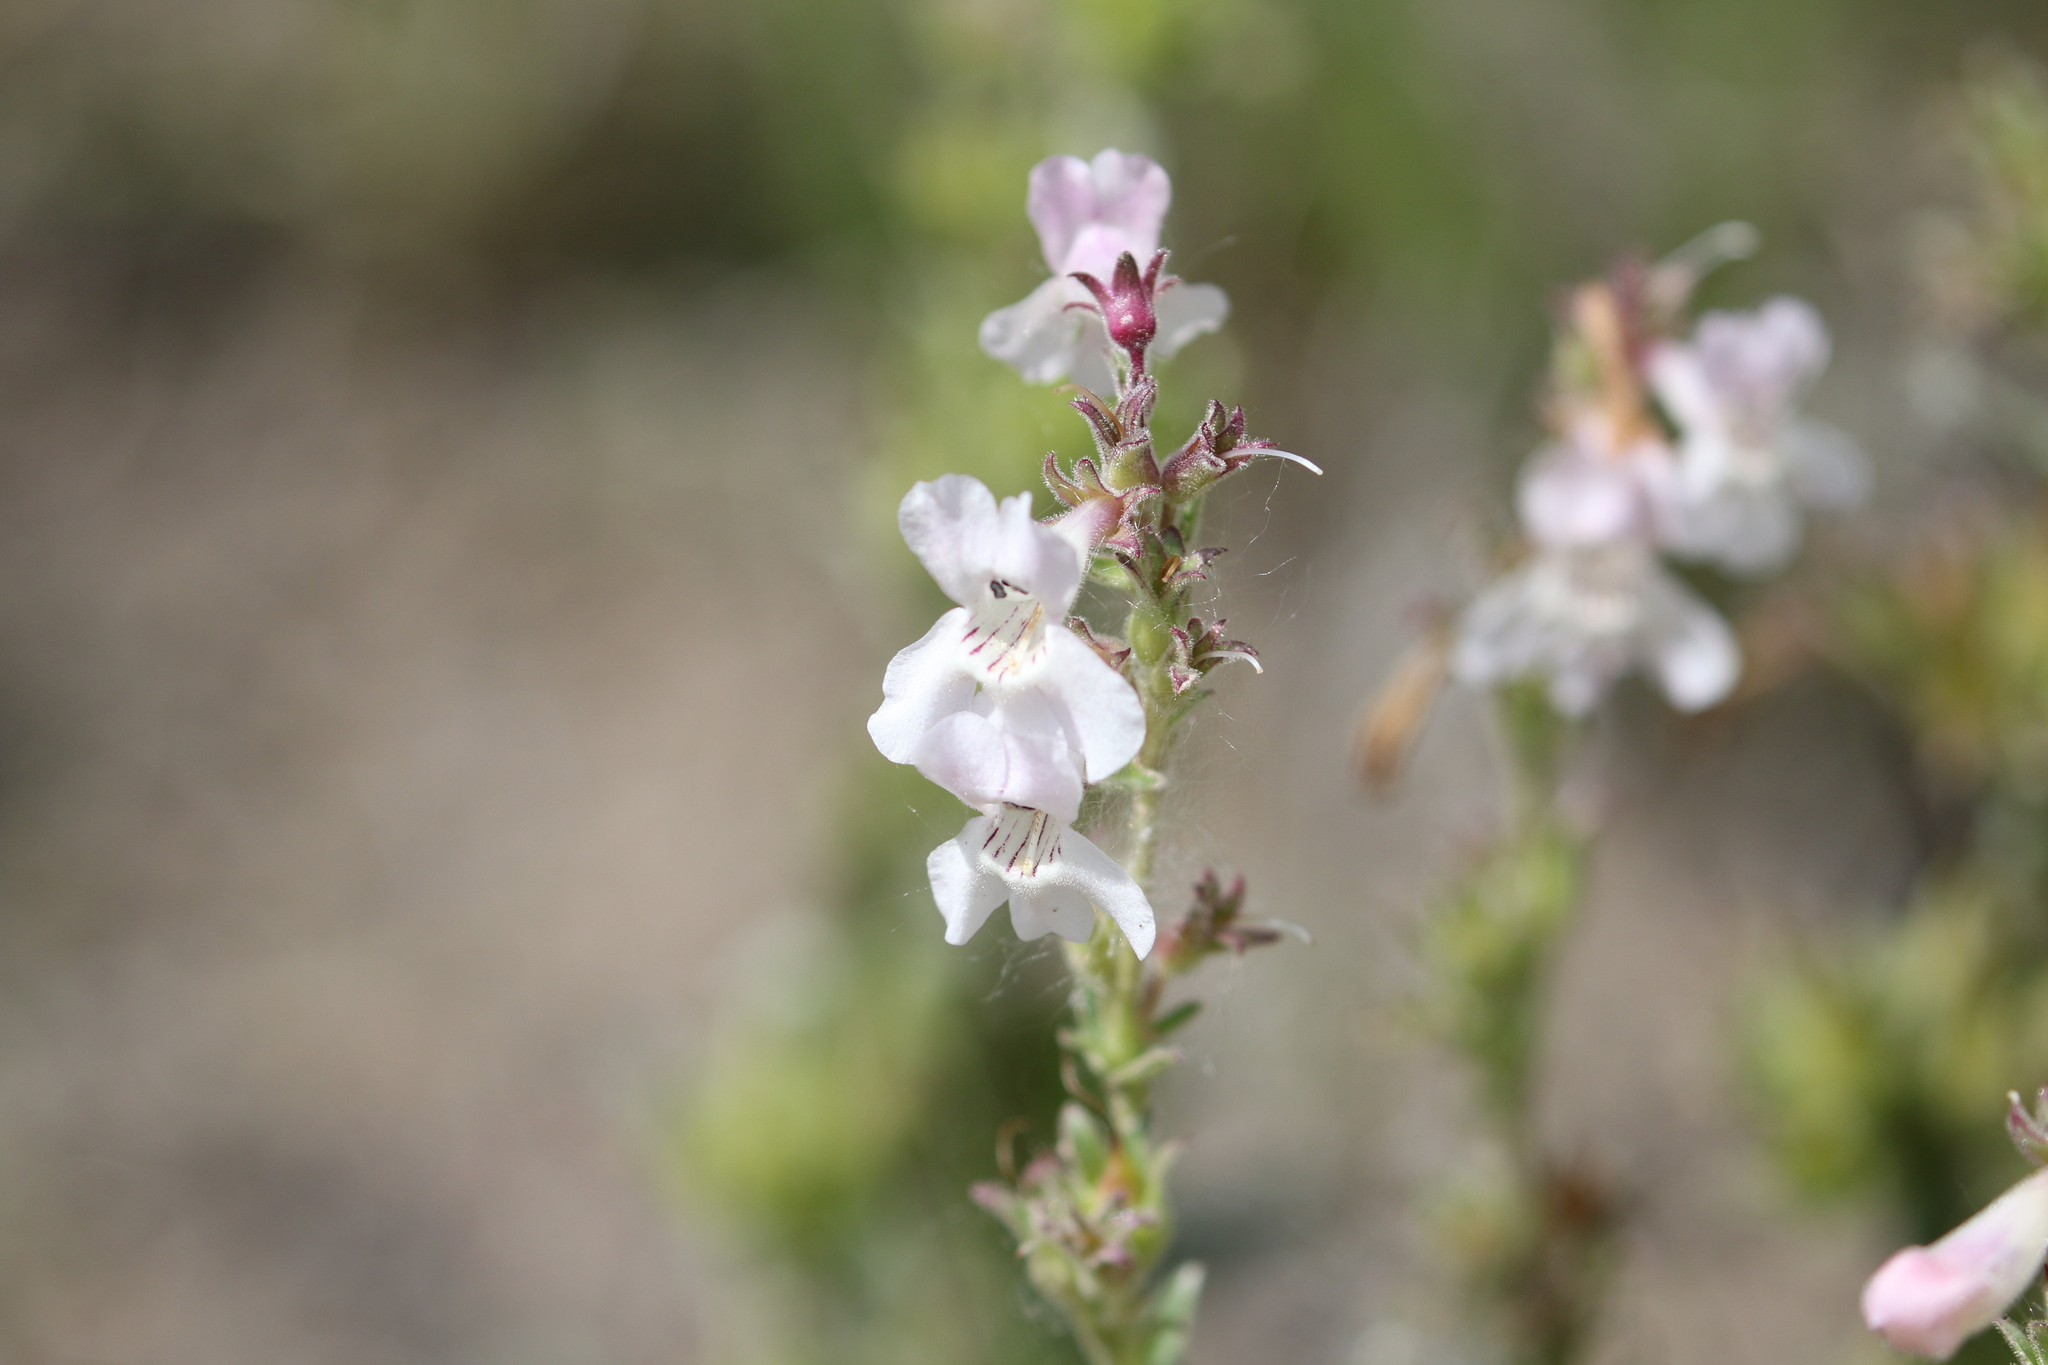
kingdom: Plantae
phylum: Tracheophyta
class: Magnoliopsida
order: Lamiales
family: Plantaginaceae
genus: Penstemon
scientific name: Penstemon albidus
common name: White beardtongue
